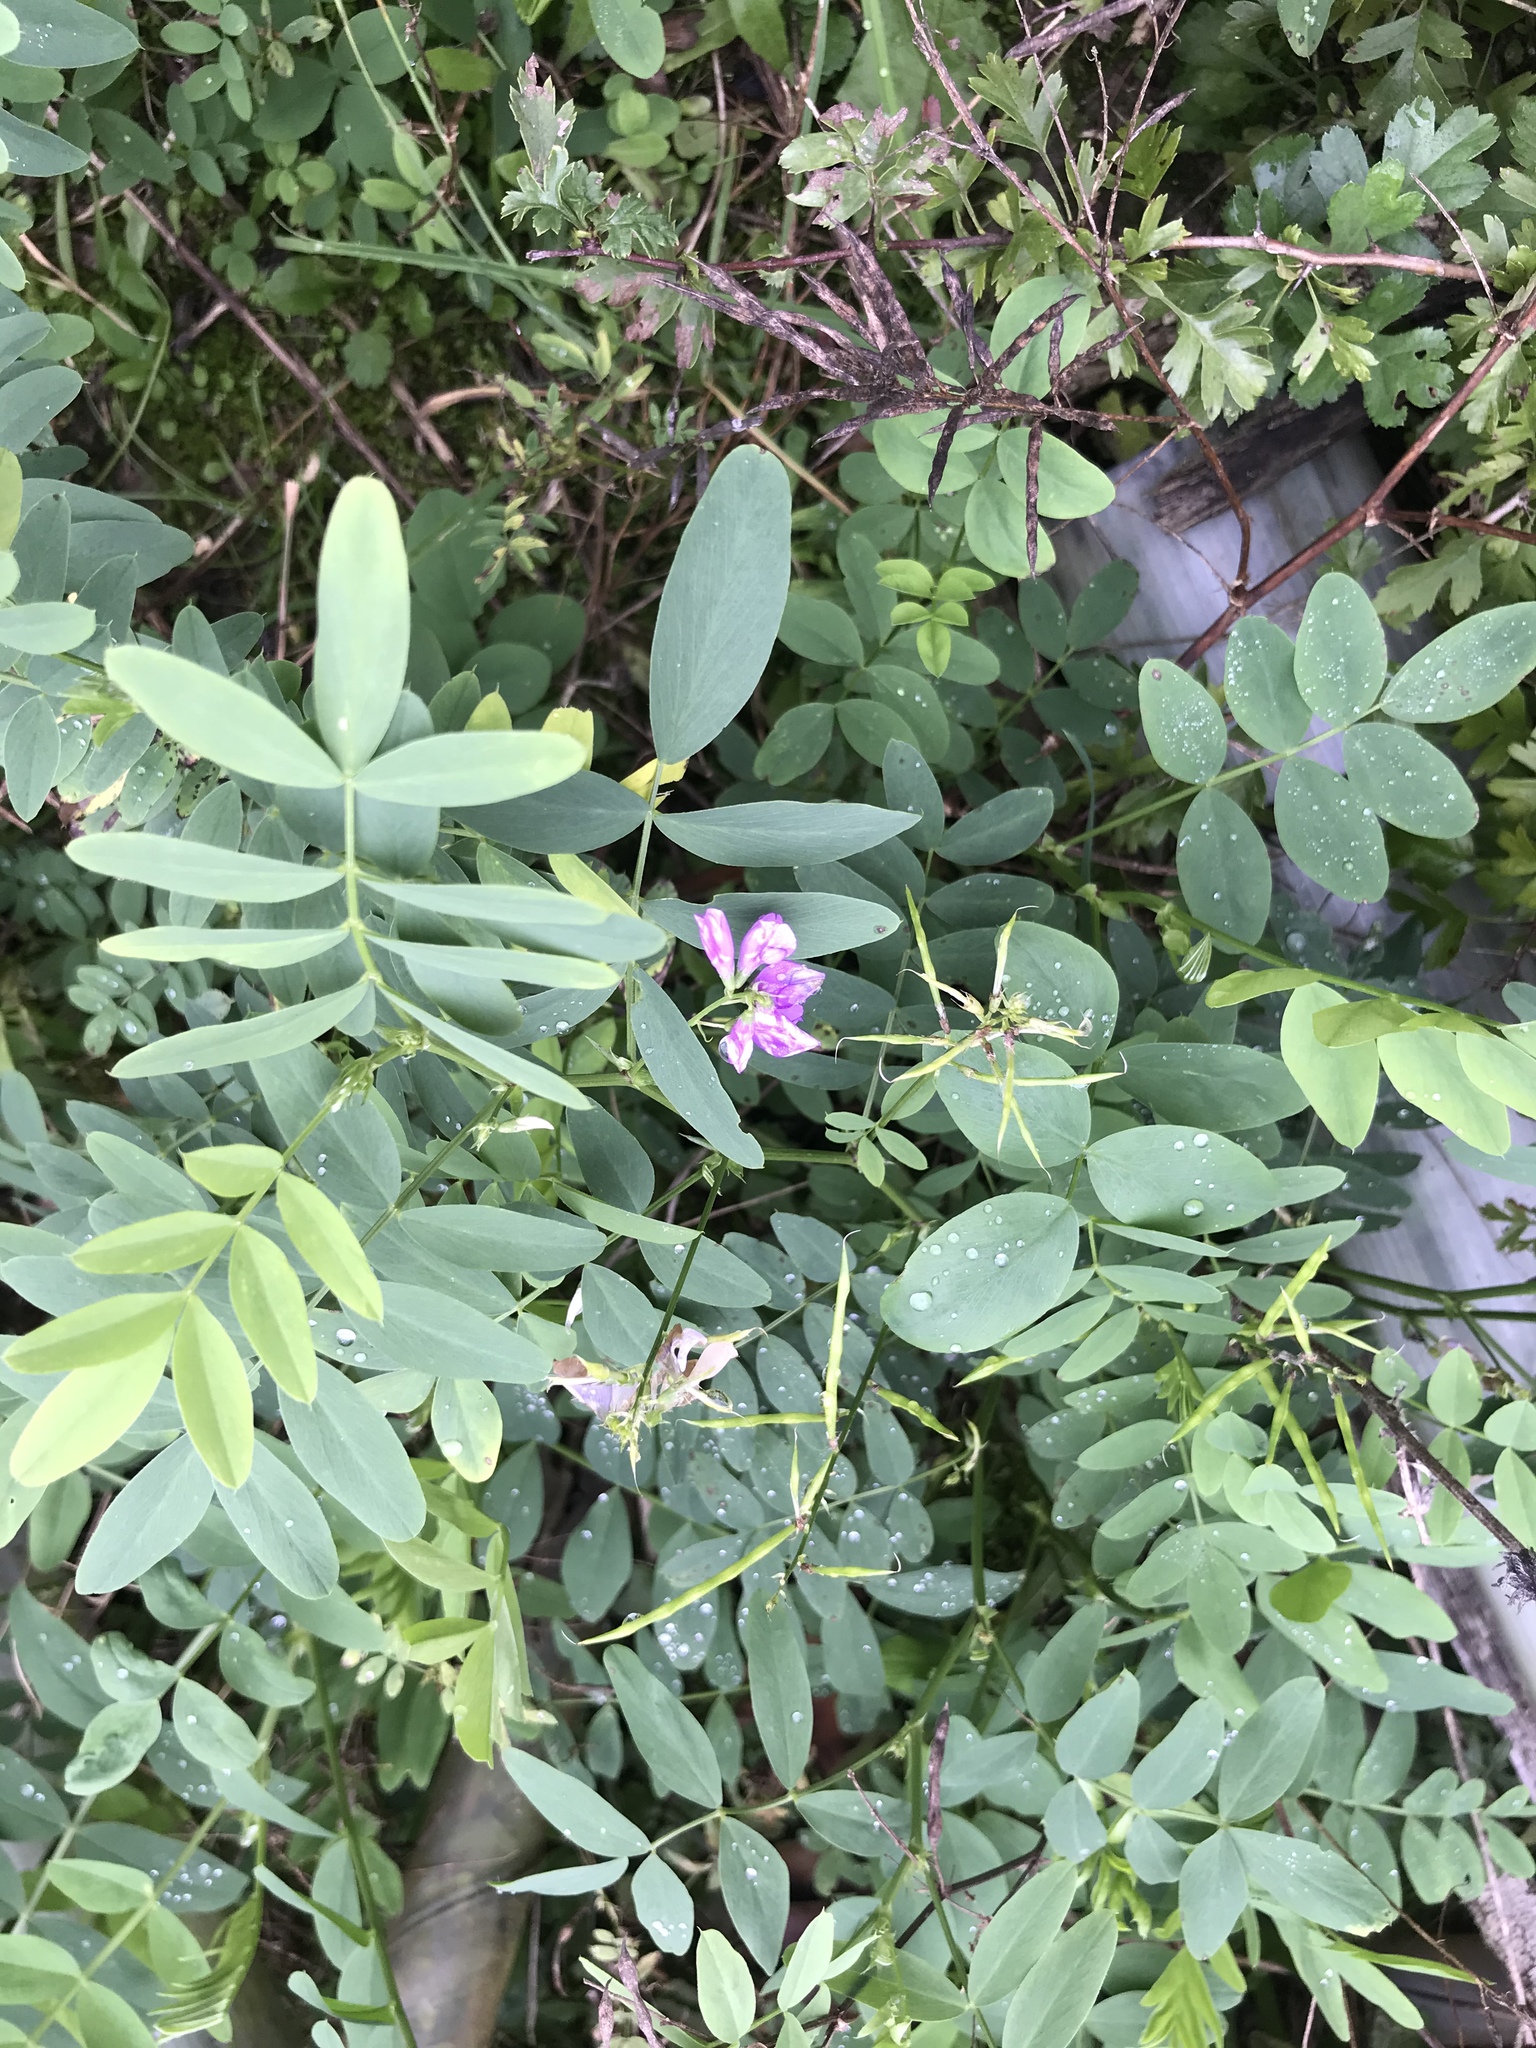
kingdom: Plantae
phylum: Tracheophyta
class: Magnoliopsida
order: Fabales
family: Fabaceae
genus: Galega
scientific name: Galega officinalis
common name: Goat's-rue
